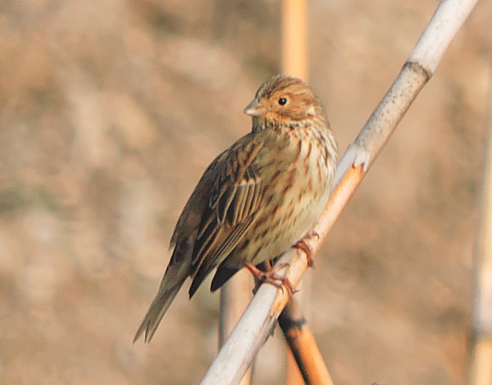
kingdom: Animalia
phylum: Chordata
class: Aves
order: Passeriformes
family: Emberizidae
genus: Emberiza
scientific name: Emberiza calandra
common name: Corn bunting
